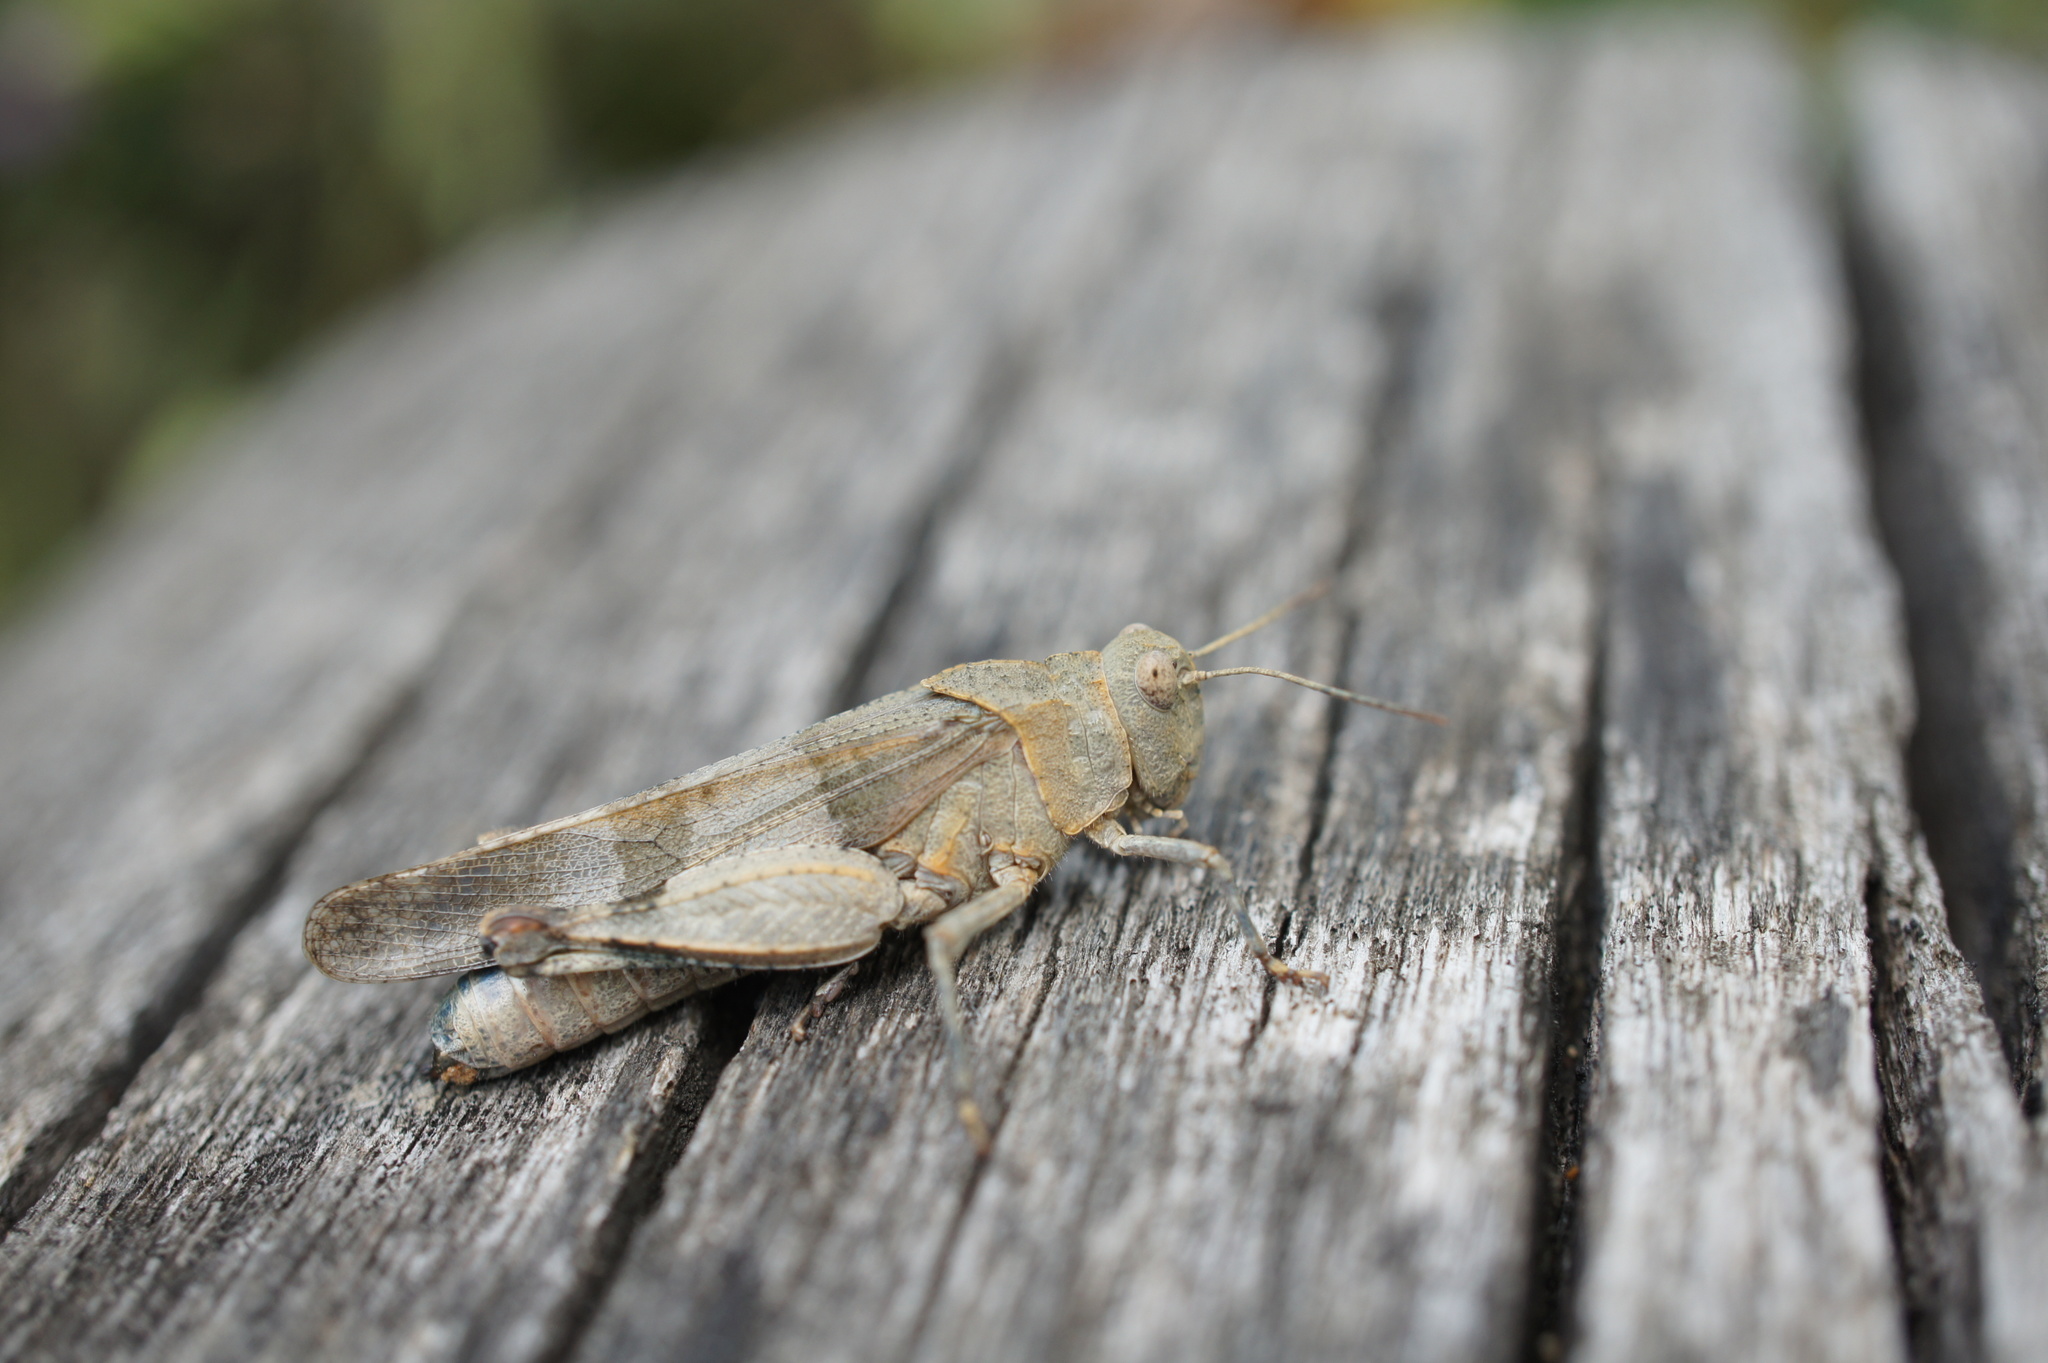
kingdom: Animalia
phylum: Arthropoda
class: Insecta
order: Orthoptera
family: Acrididae
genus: Oedipoda
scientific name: Oedipoda caerulescens
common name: Blue-winged grasshopper
